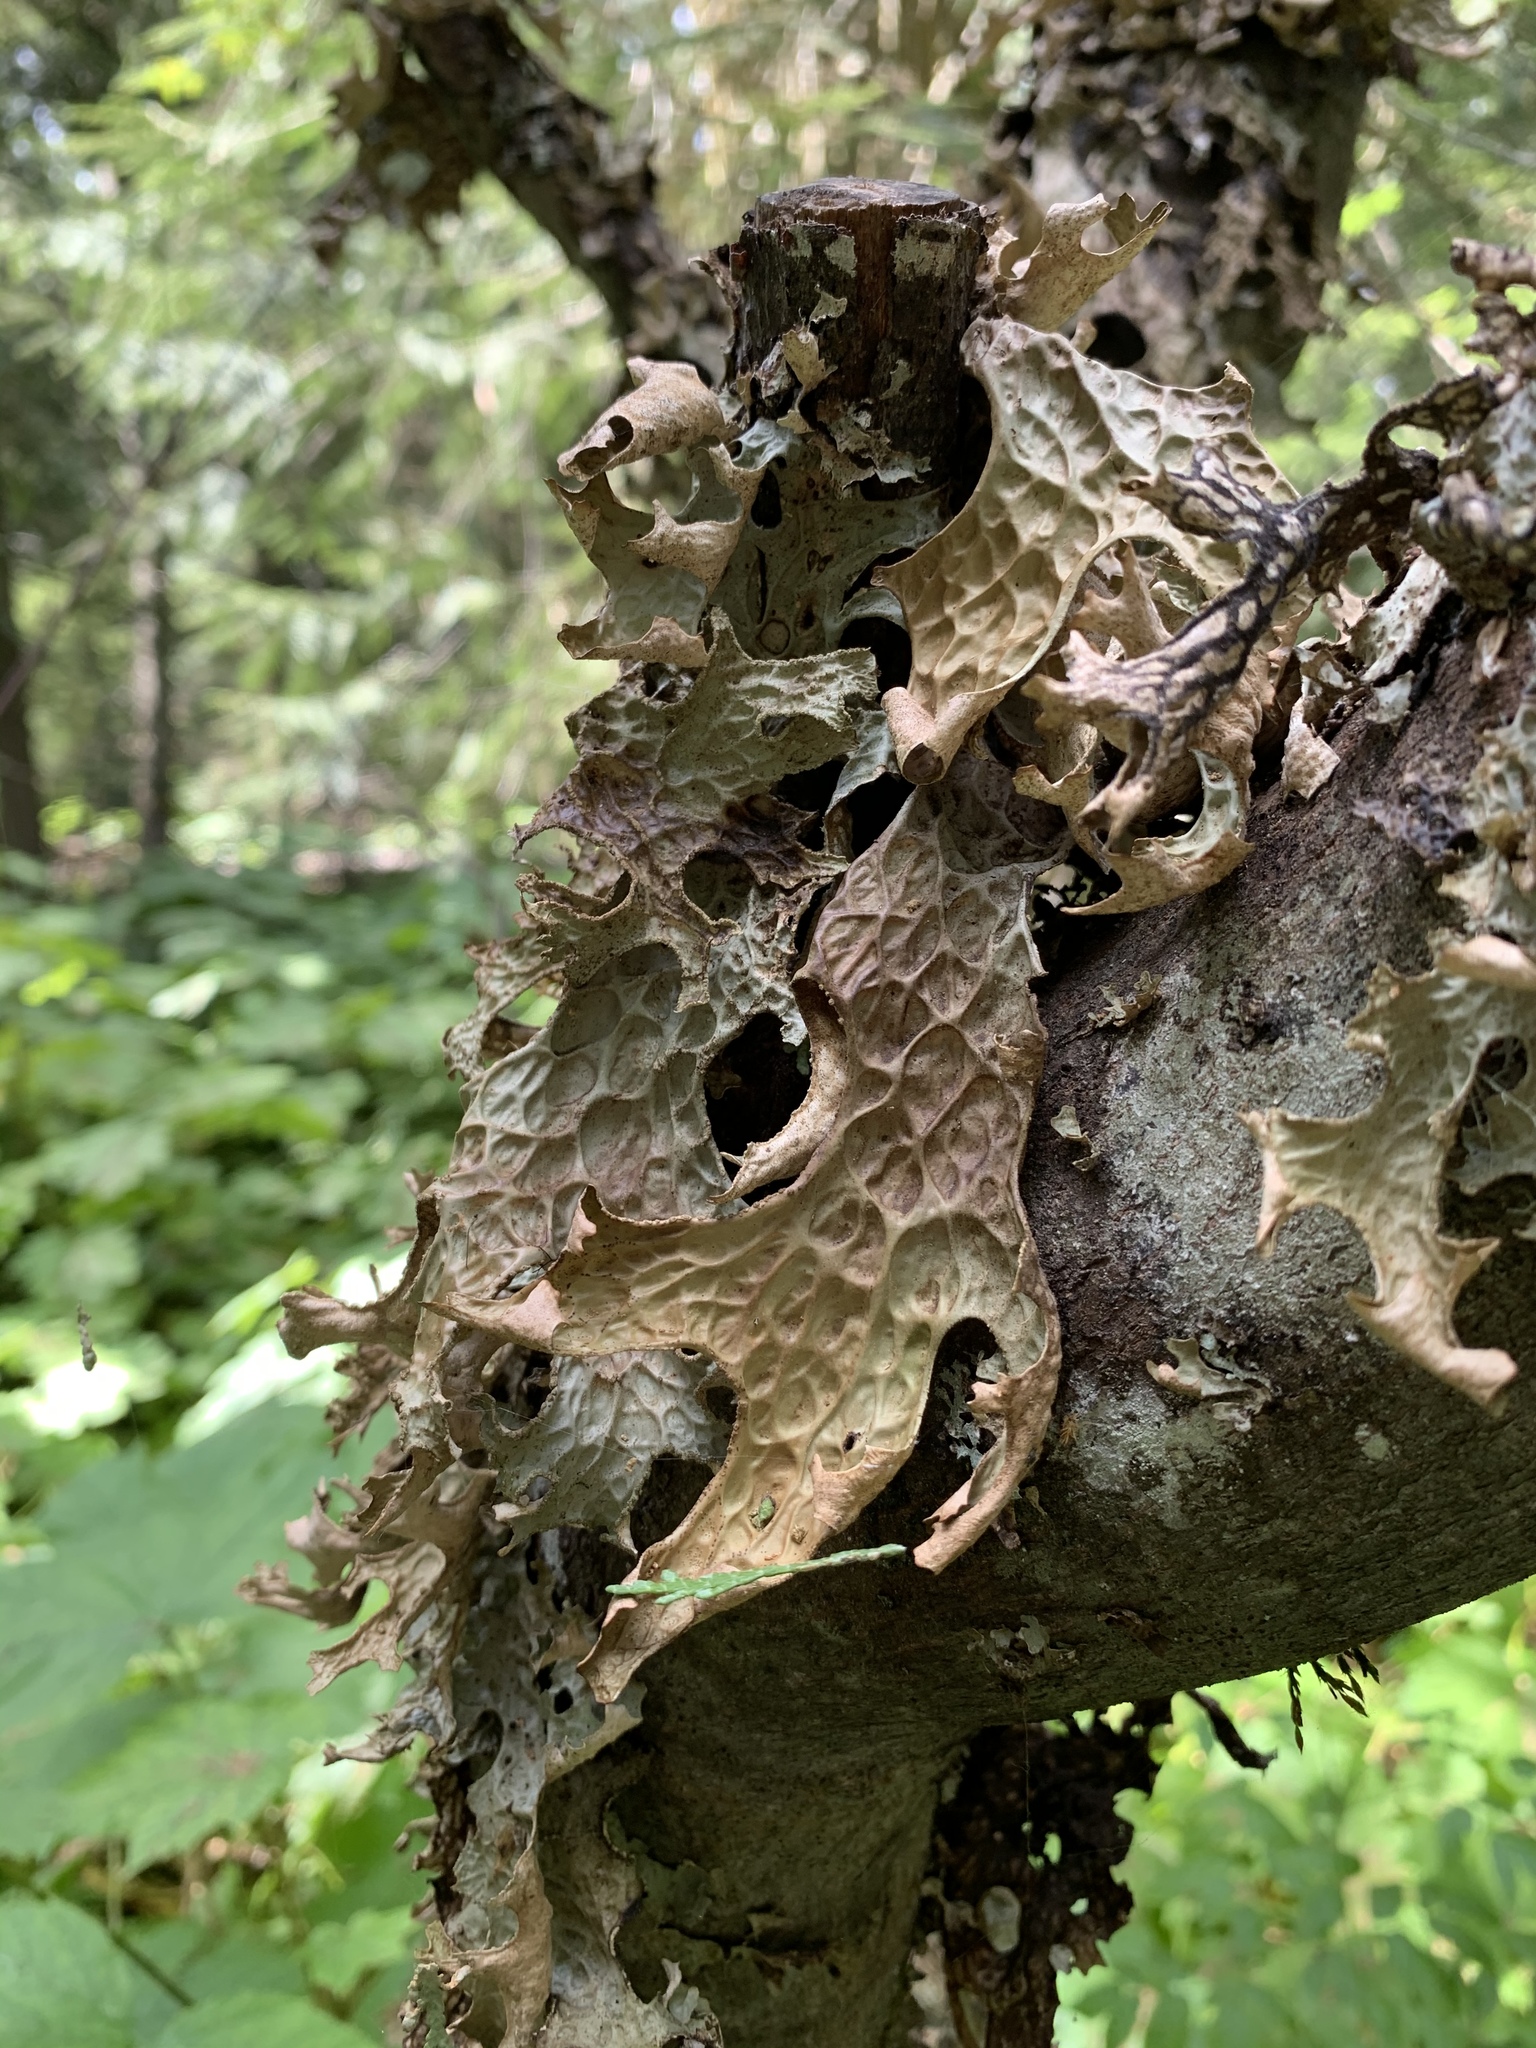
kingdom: Fungi
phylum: Ascomycota
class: Lecanoromycetes
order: Peltigerales
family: Lobariaceae
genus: Lobaria
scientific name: Lobaria pulmonaria
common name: Lungwort
